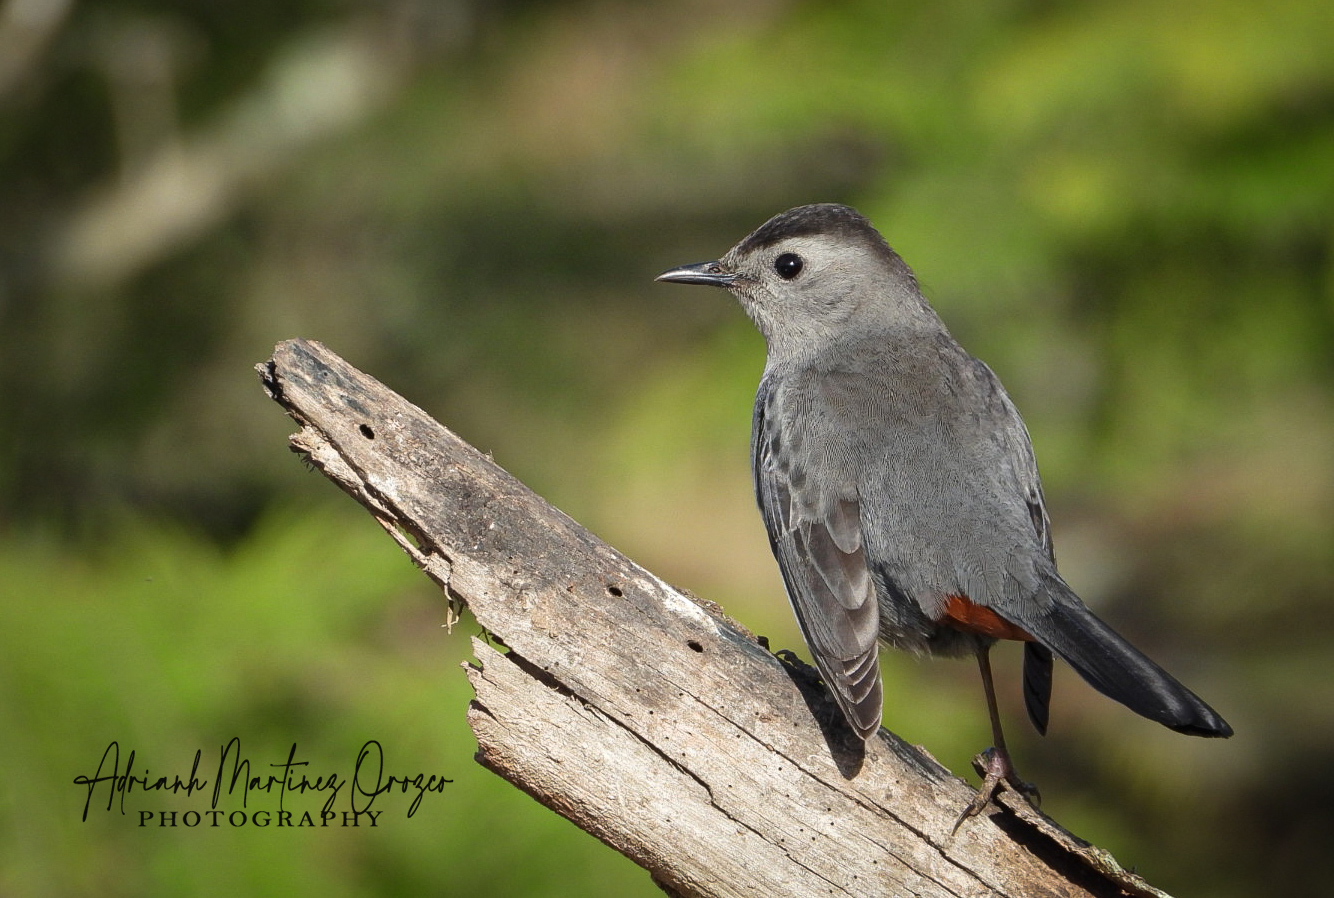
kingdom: Animalia
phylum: Chordata
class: Aves
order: Passeriformes
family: Mimidae
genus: Dumetella
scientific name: Dumetella carolinensis
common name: Gray catbird
